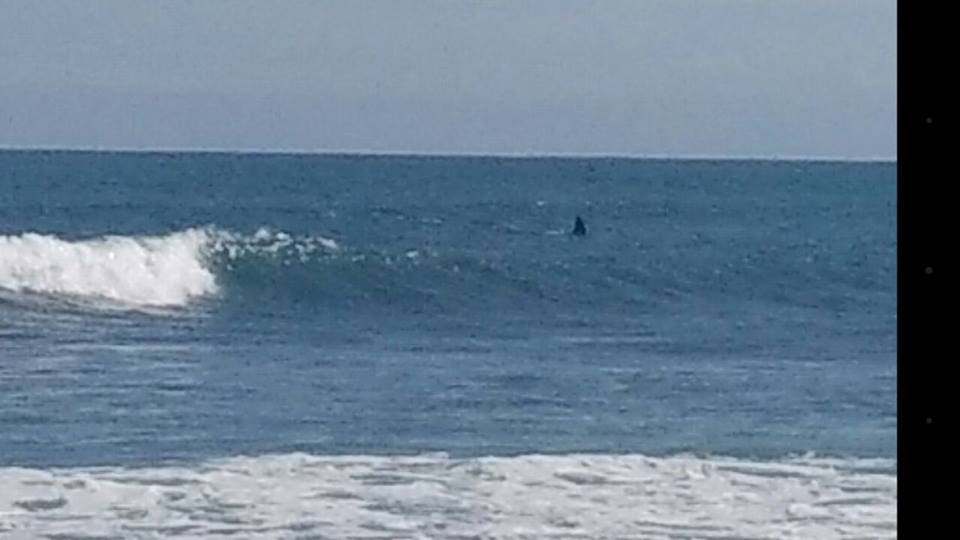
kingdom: Animalia
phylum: Chordata
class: Mammalia
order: Cetacea
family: Delphinidae
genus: Orcinus
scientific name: Orcinus orca
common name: Killer whale
